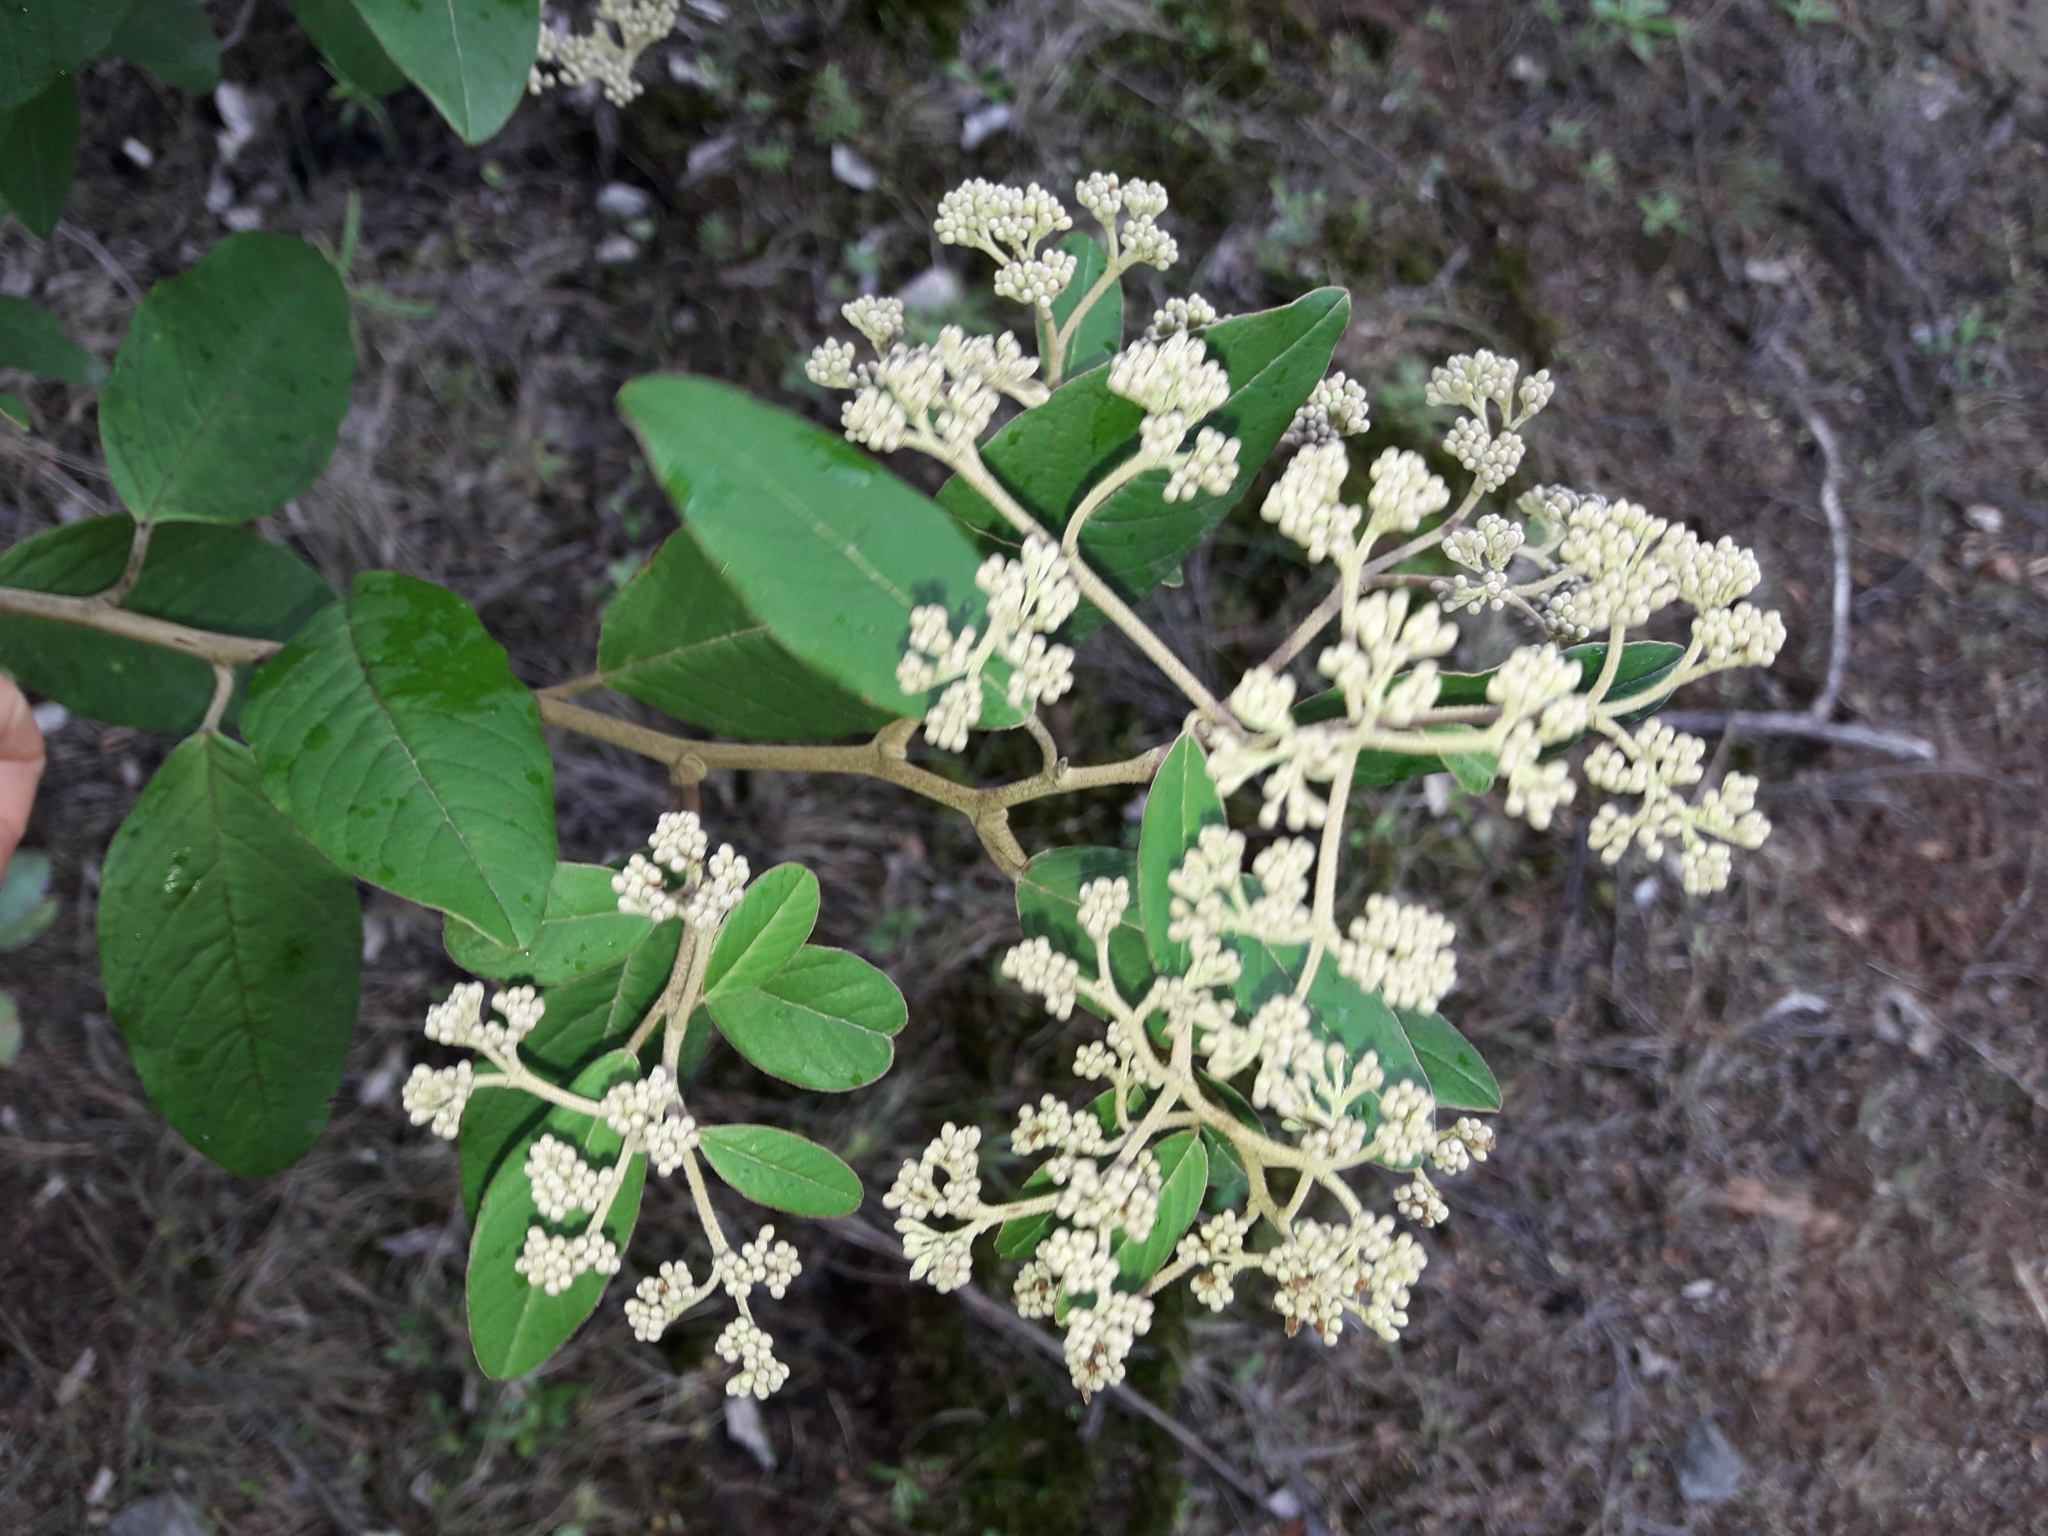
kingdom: Plantae
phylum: Tracheophyta
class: Magnoliopsida
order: Rosales
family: Rhamnaceae
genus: Pomaderris
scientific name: Pomaderris kumeraho
